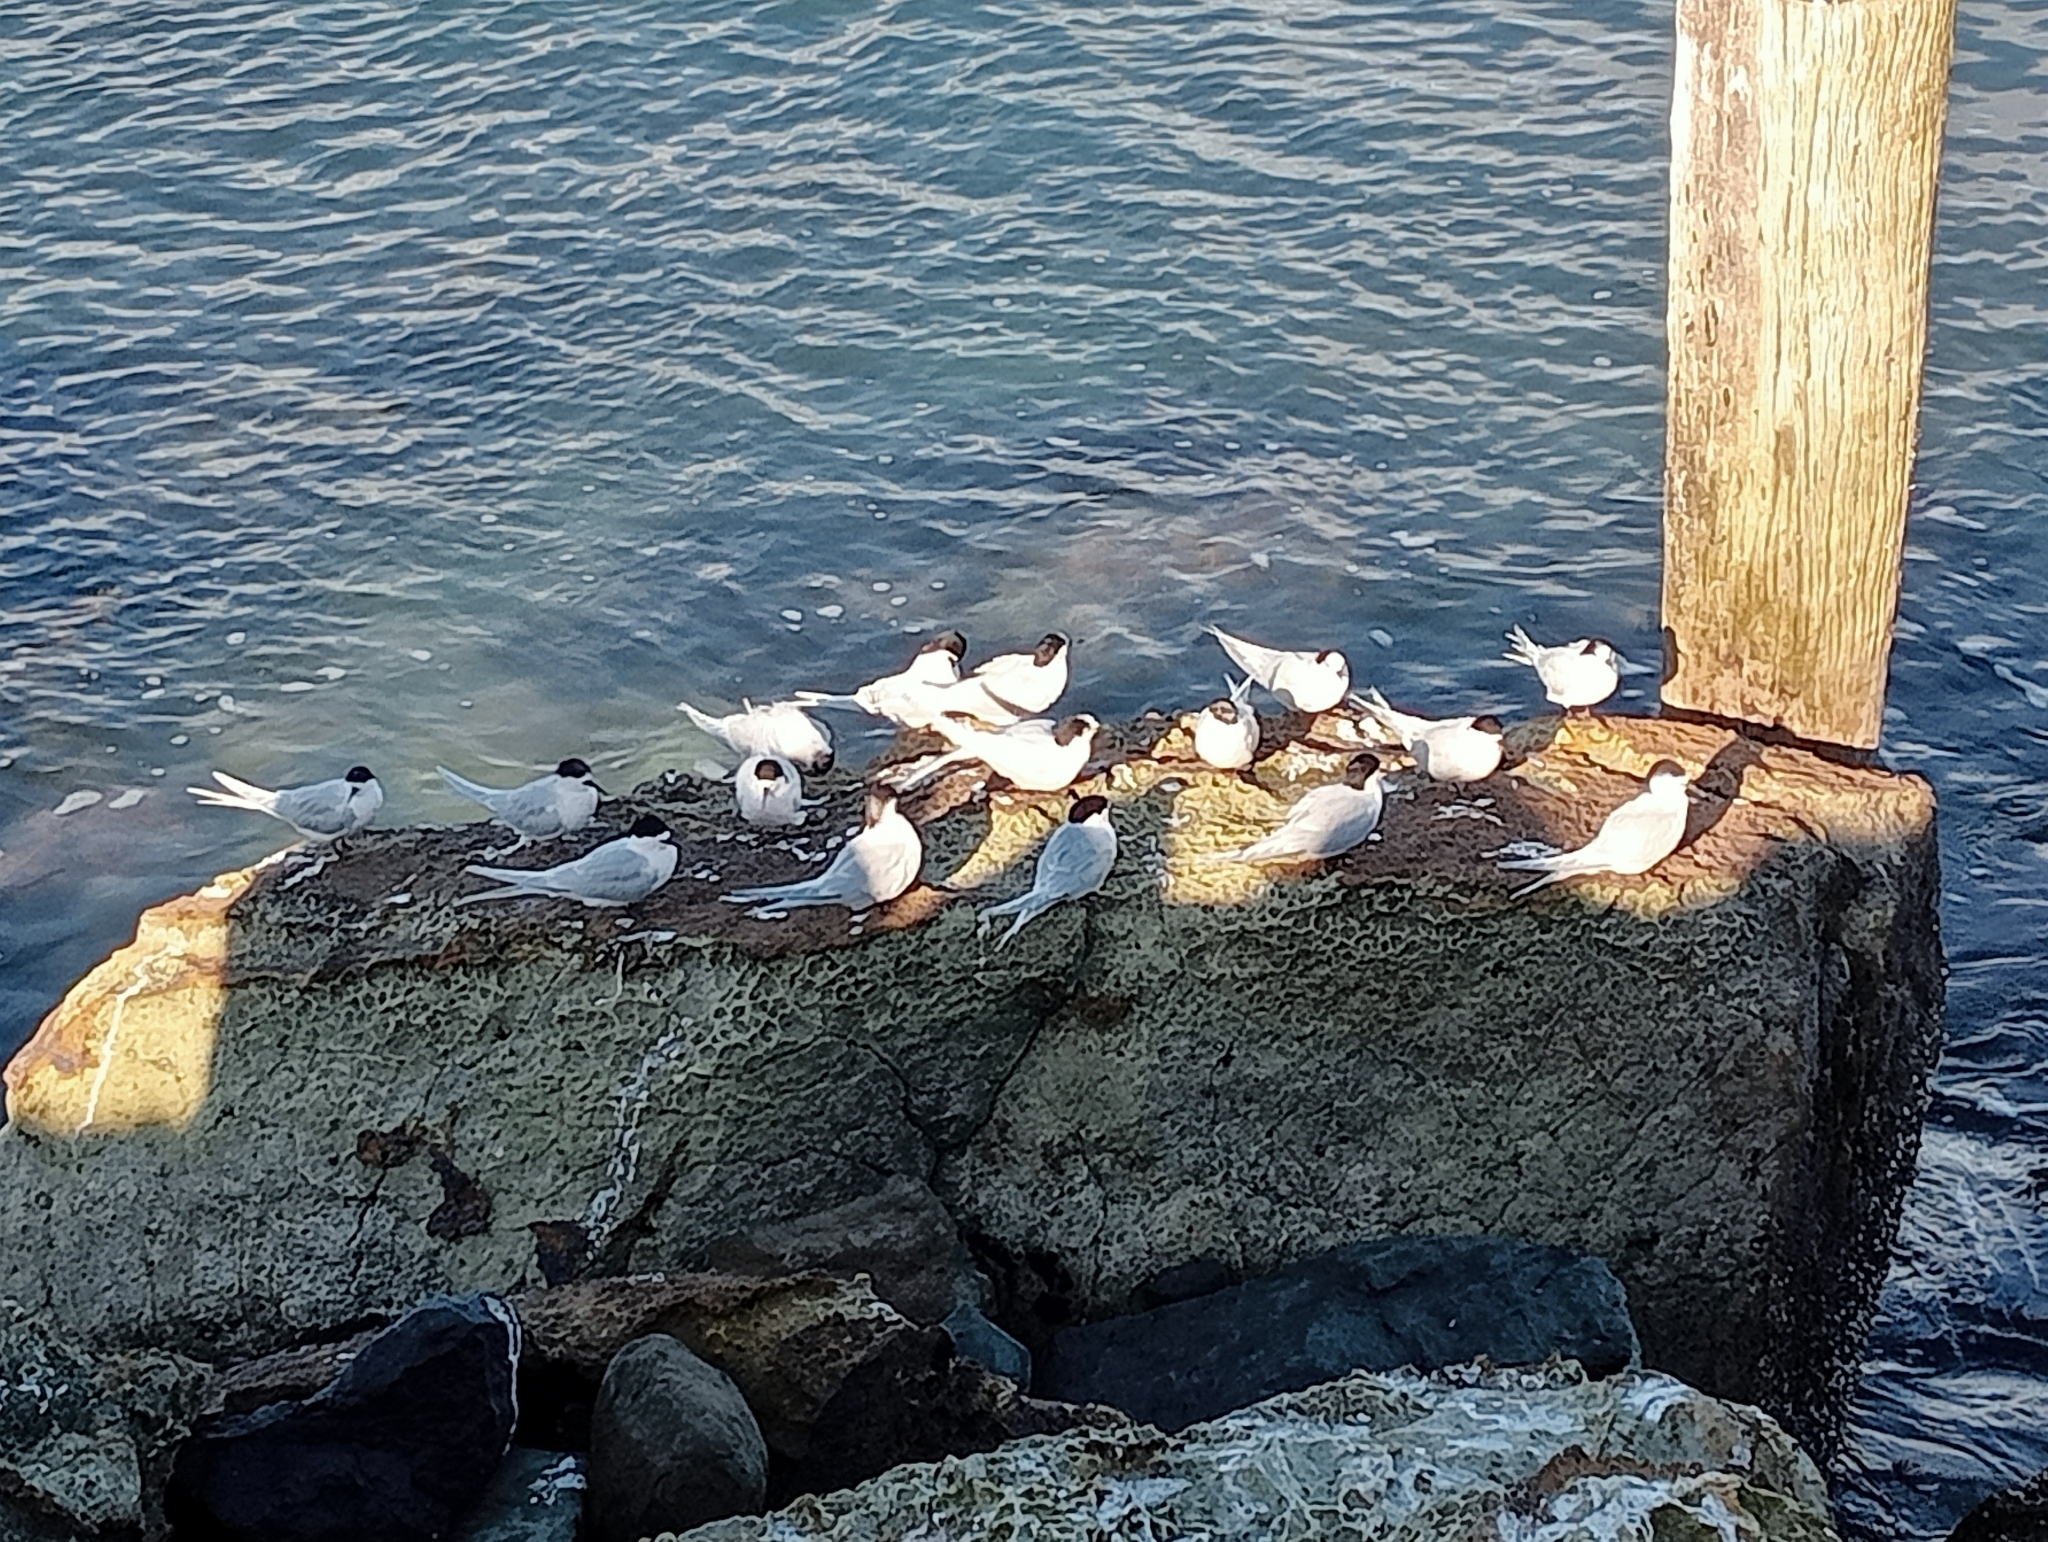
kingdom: Animalia
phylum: Chordata
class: Aves
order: Charadriiformes
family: Laridae
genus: Sterna
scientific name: Sterna striata
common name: White-fronted tern
